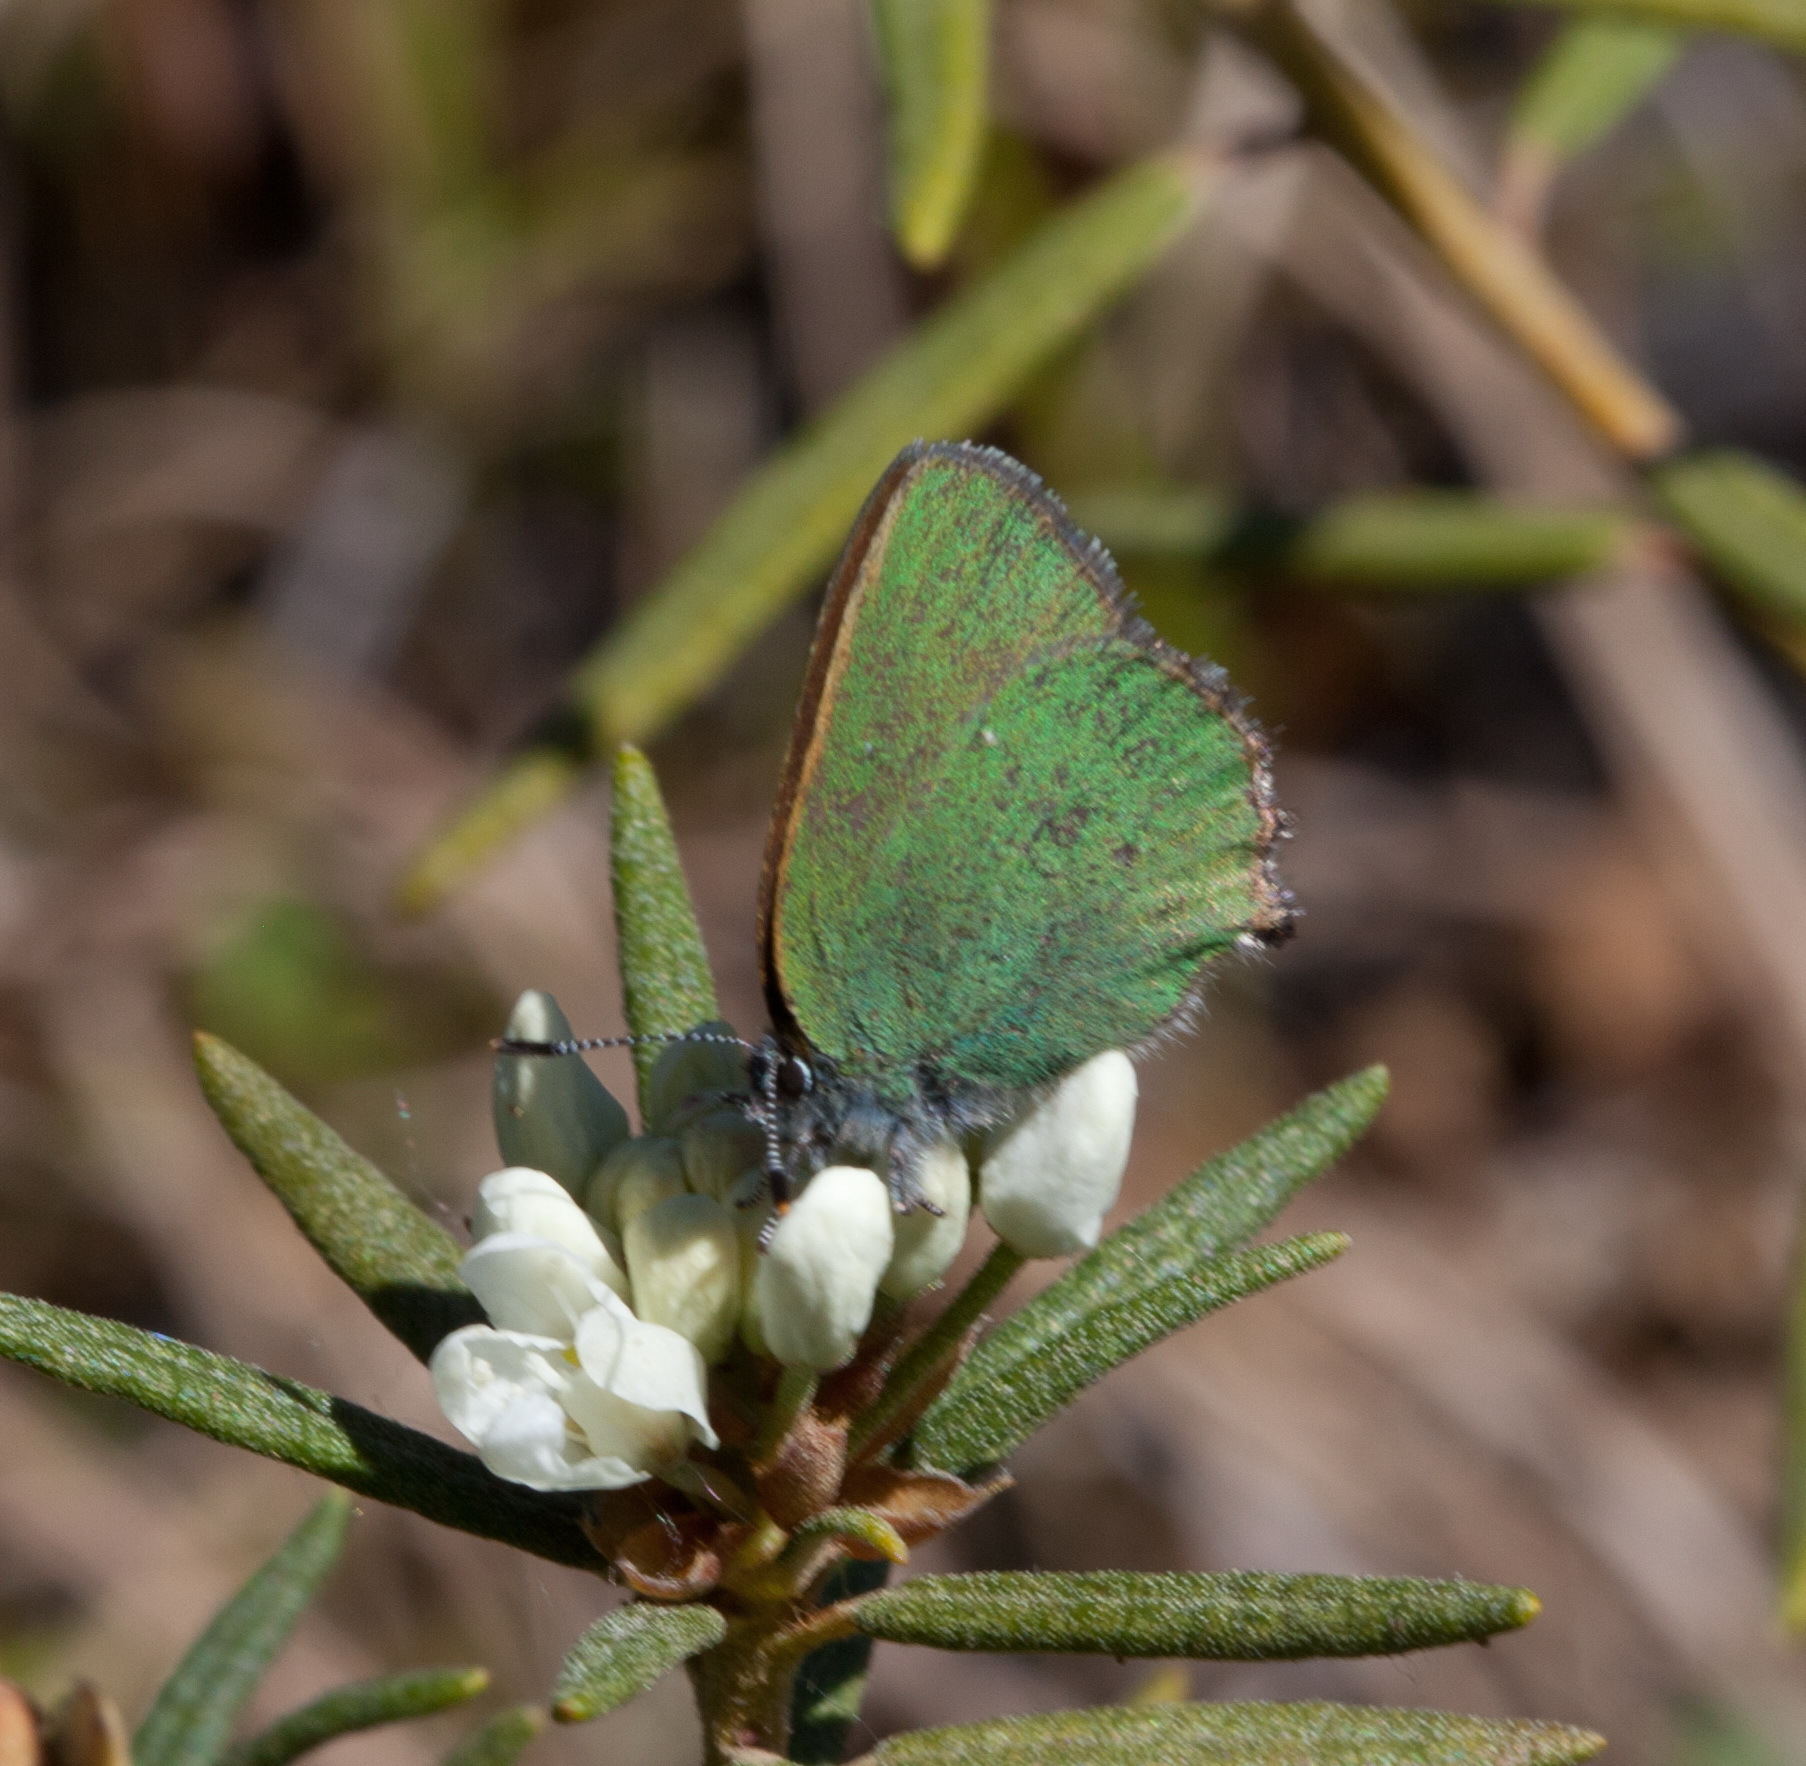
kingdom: Animalia
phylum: Arthropoda
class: Insecta
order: Lepidoptera
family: Lycaenidae
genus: Callophrys
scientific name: Callophrys rubi
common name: Green hairstreak
